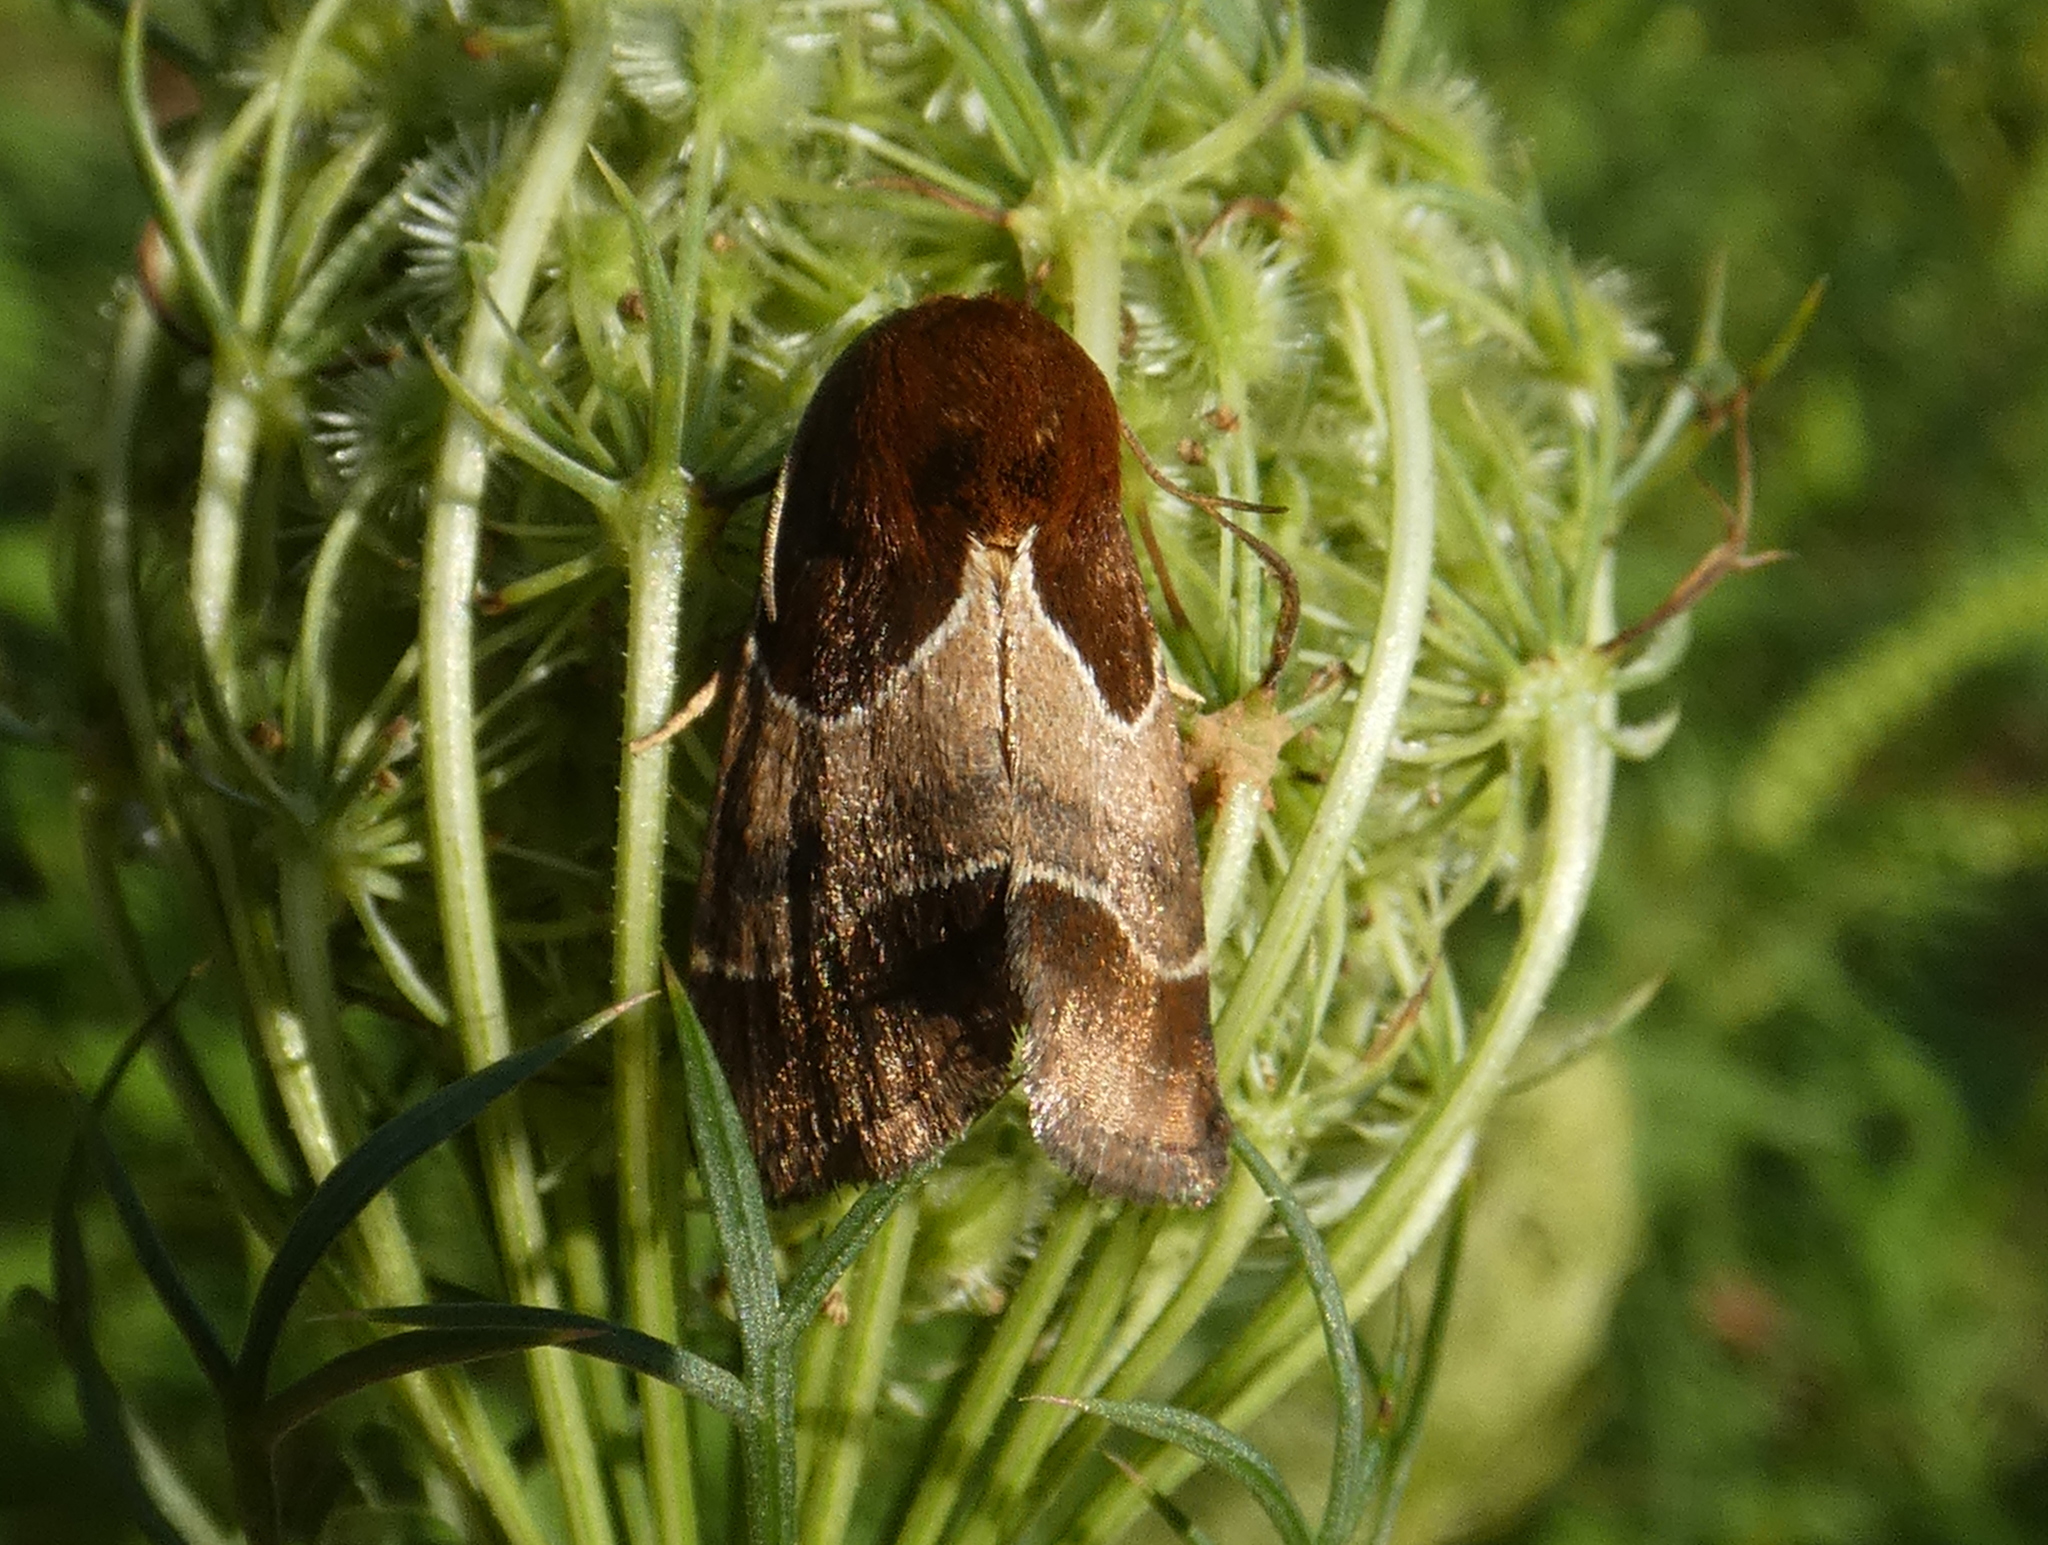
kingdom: Animalia
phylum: Arthropoda
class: Insecta
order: Lepidoptera
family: Noctuidae
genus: Schinia
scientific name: Schinia arcigera
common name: Arcigera flower moth
